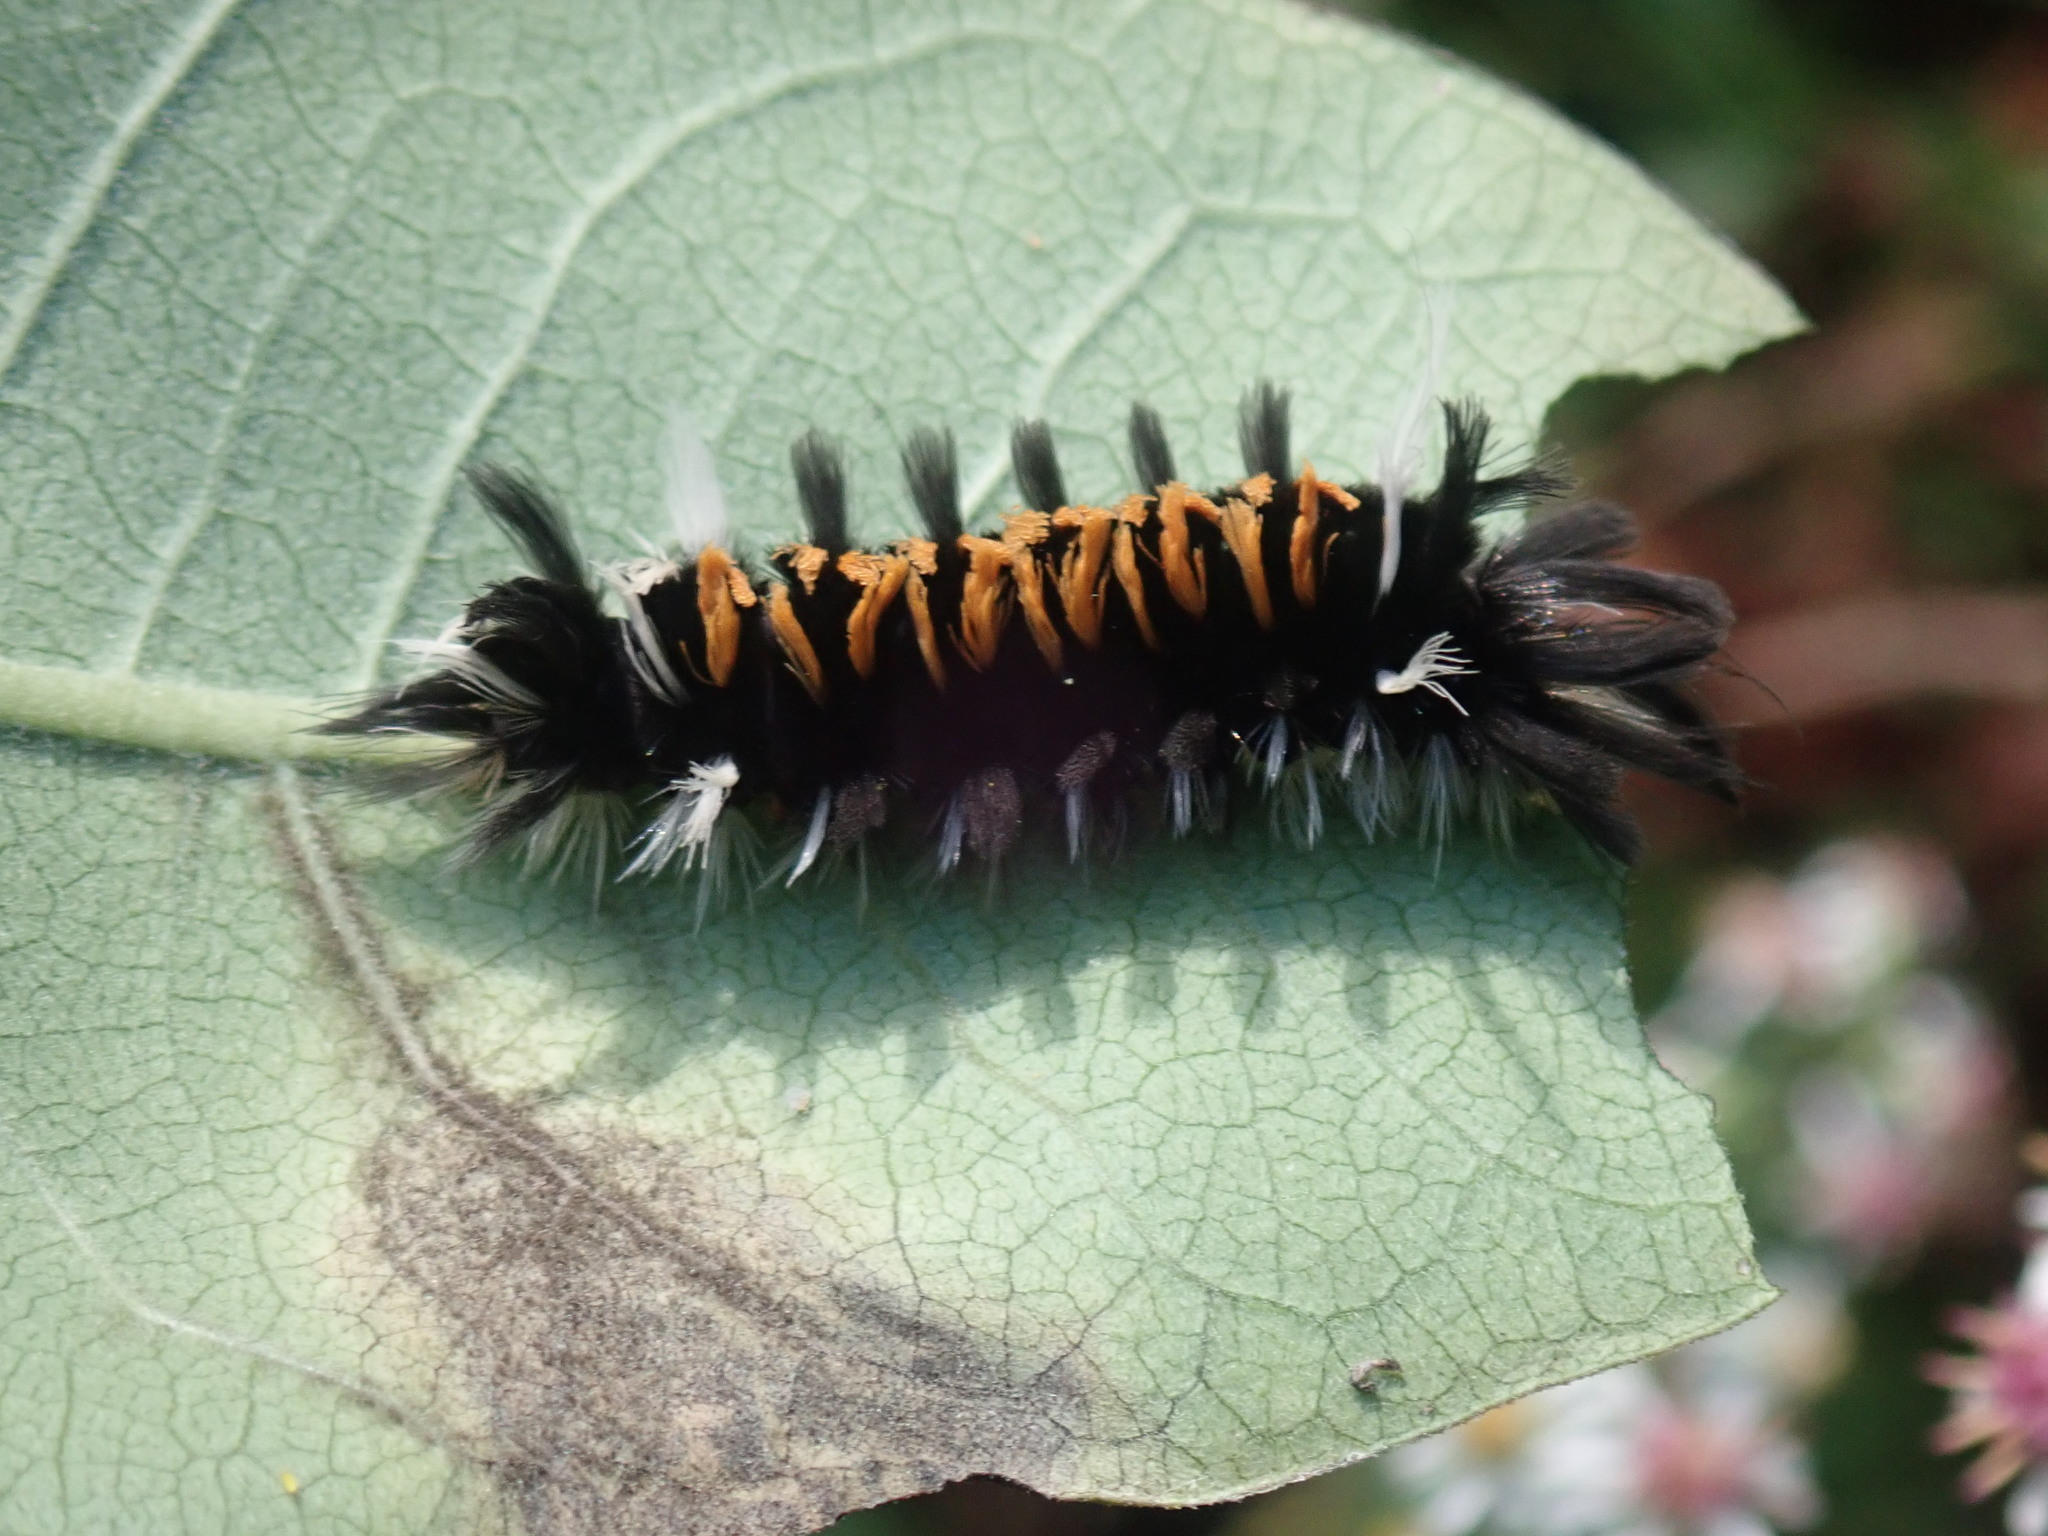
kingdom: Animalia
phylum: Arthropoda
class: Insecta
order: Lepidoptera
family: Erebidae
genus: Euchaetes
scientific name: Euchaetes egle
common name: Milkweed tussock moth
